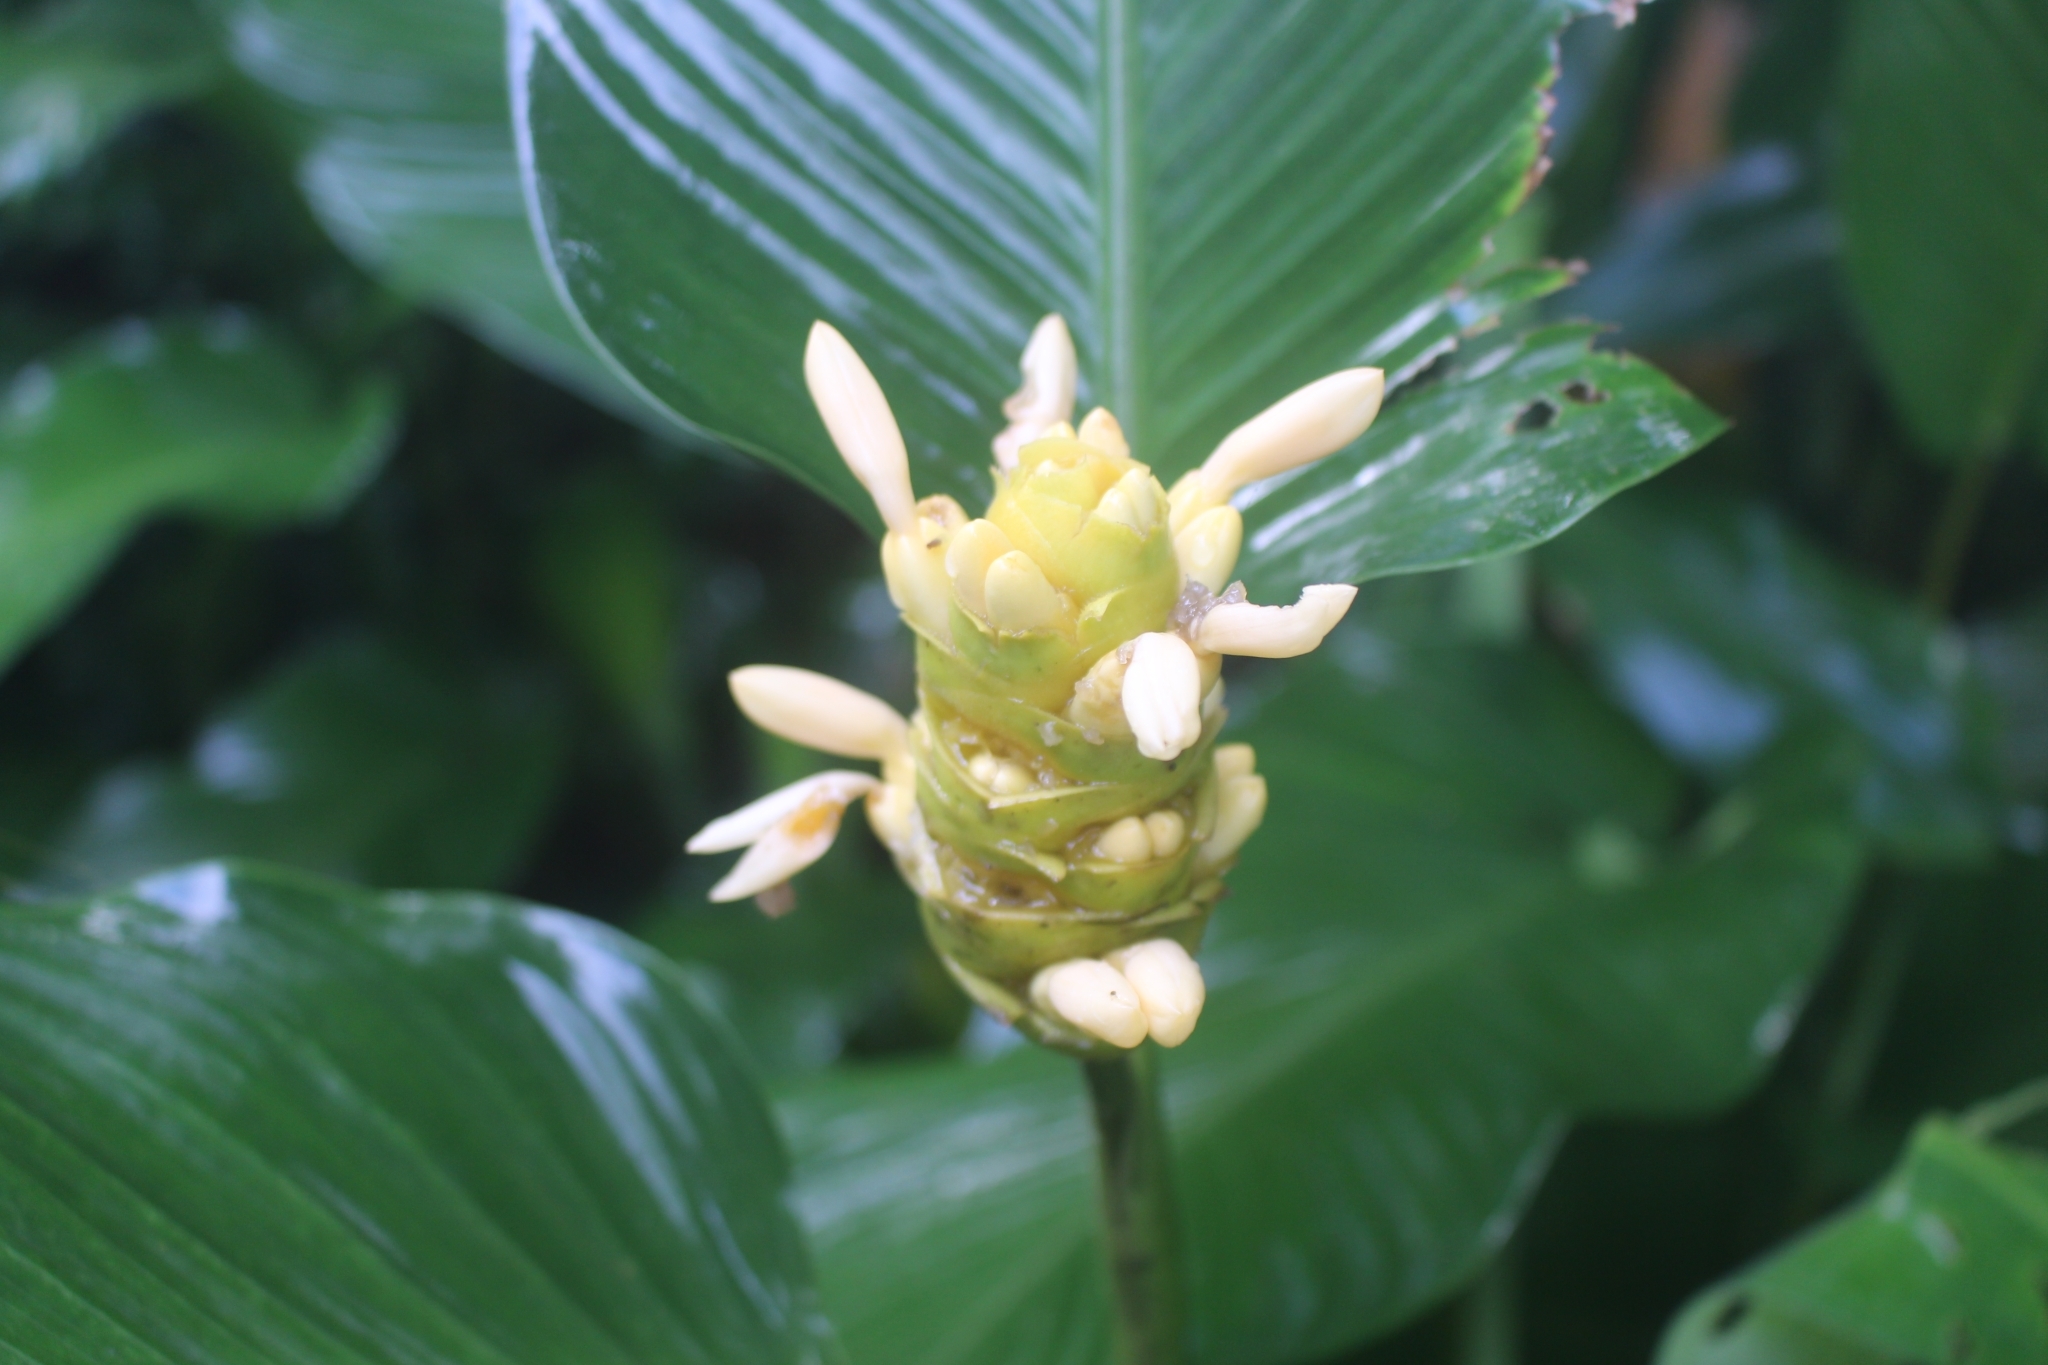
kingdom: Plantae
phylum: Tracheophyta
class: Liliopsida
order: Zingiberales
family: Marantaceae
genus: Goeppertia
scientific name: Goeppertia marantifolia
